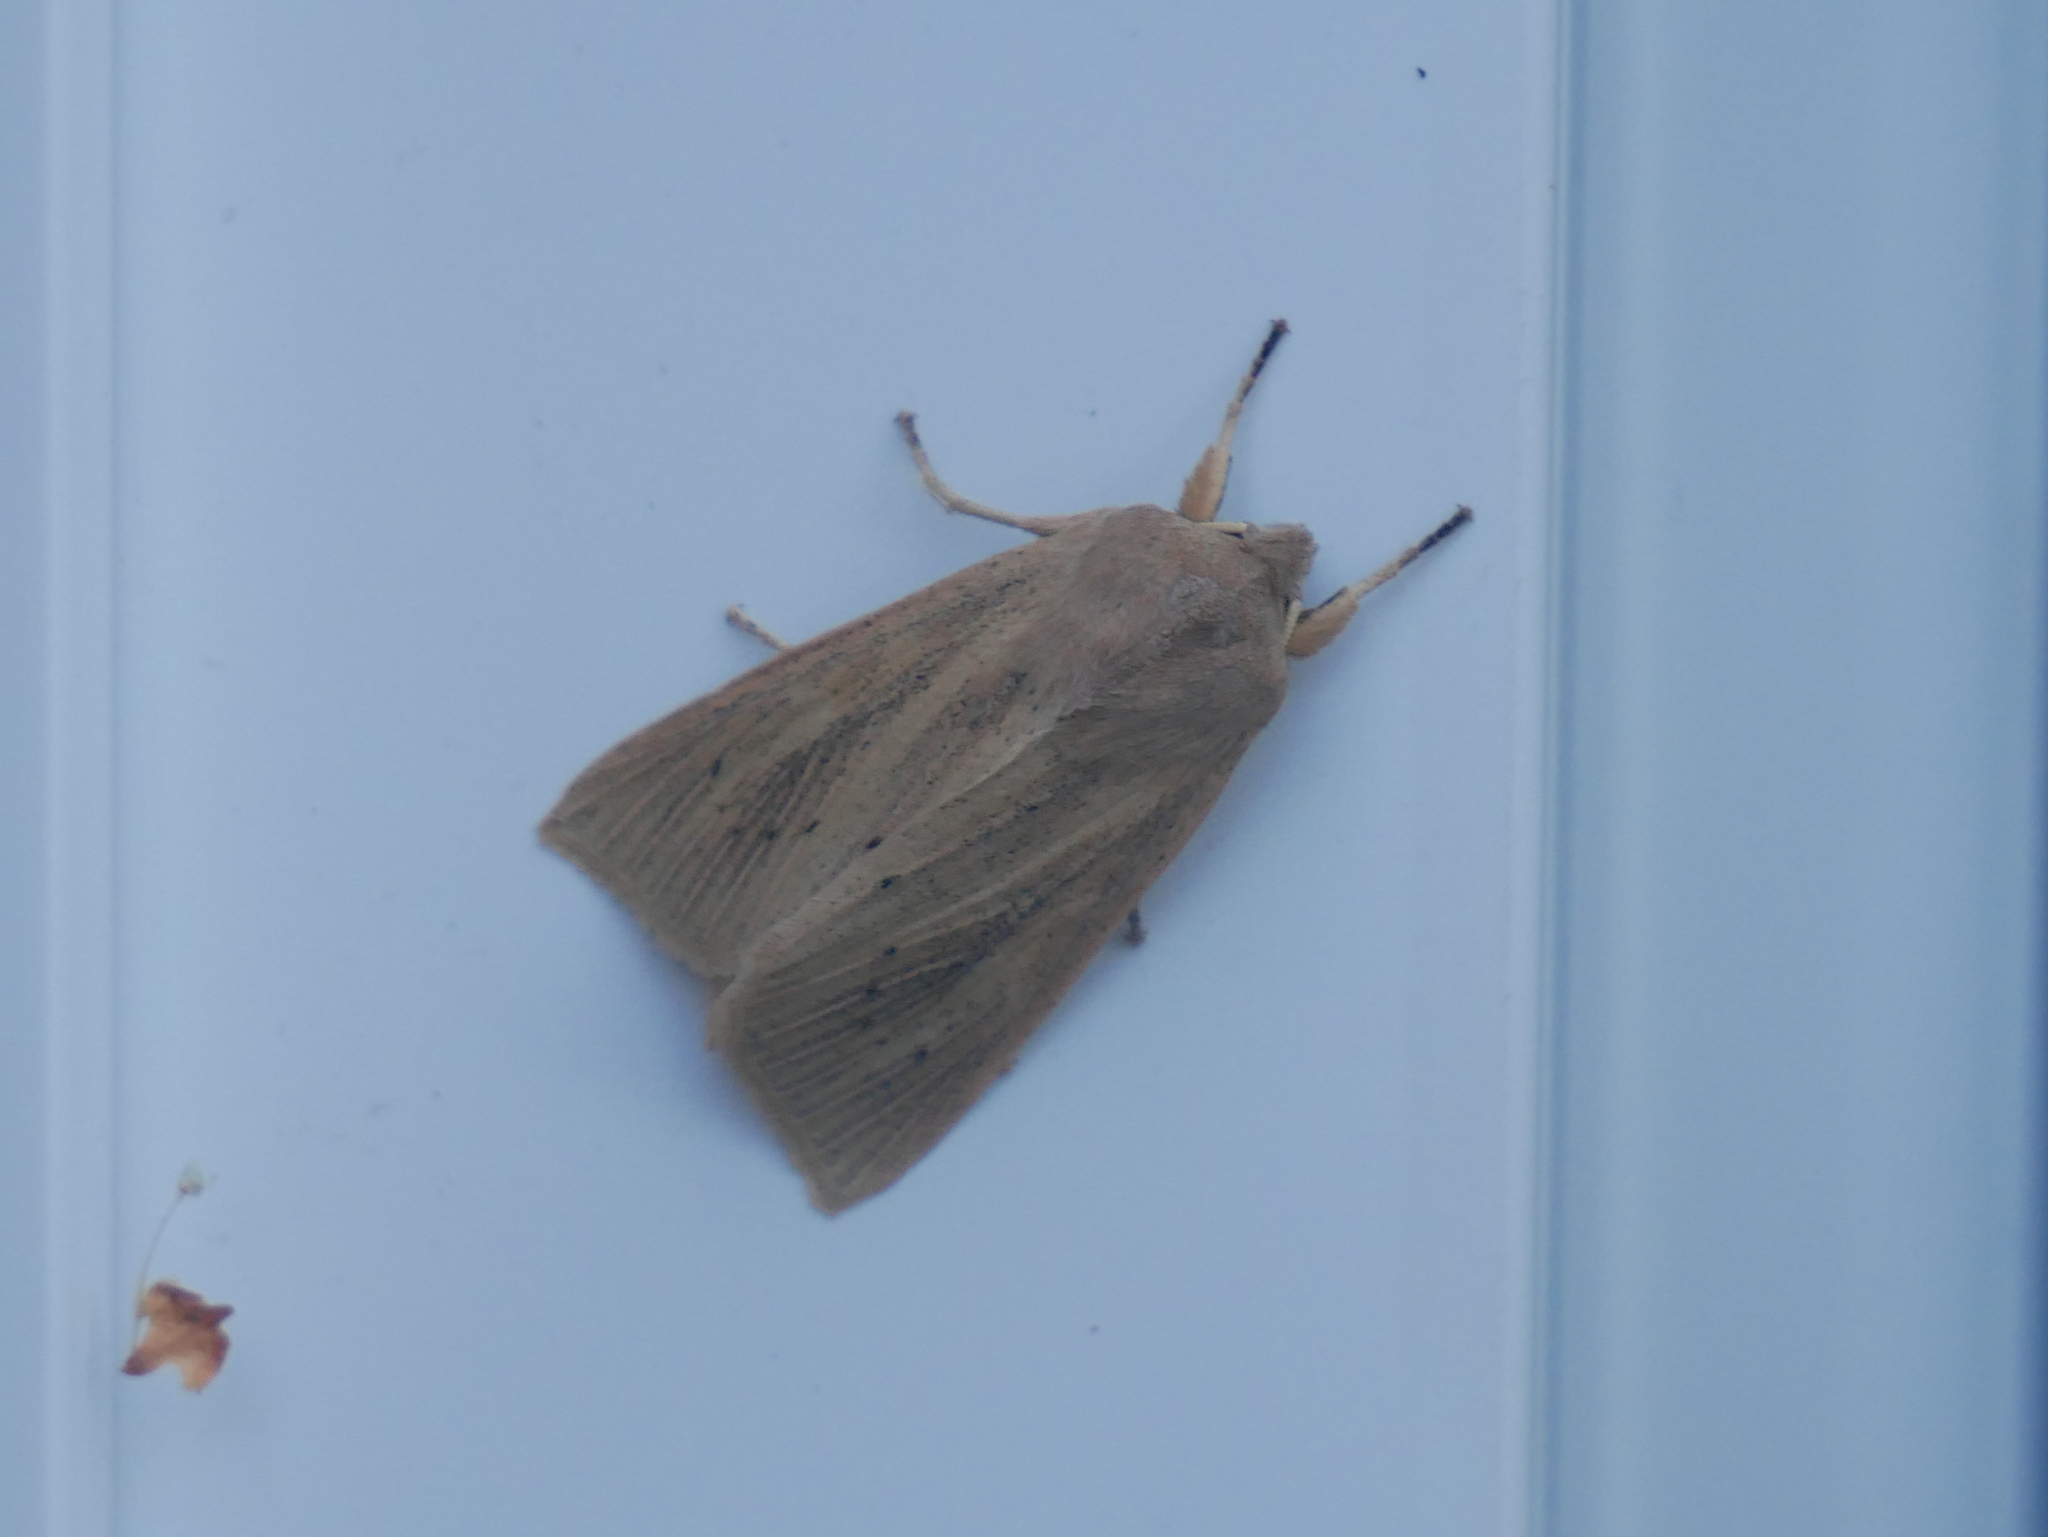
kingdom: Animalia
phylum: Arthropoda
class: Insecta
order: Lepidoptera
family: Noctuidae
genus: Rhizedra
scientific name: Rhizedra lutosa
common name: Large wainscot
